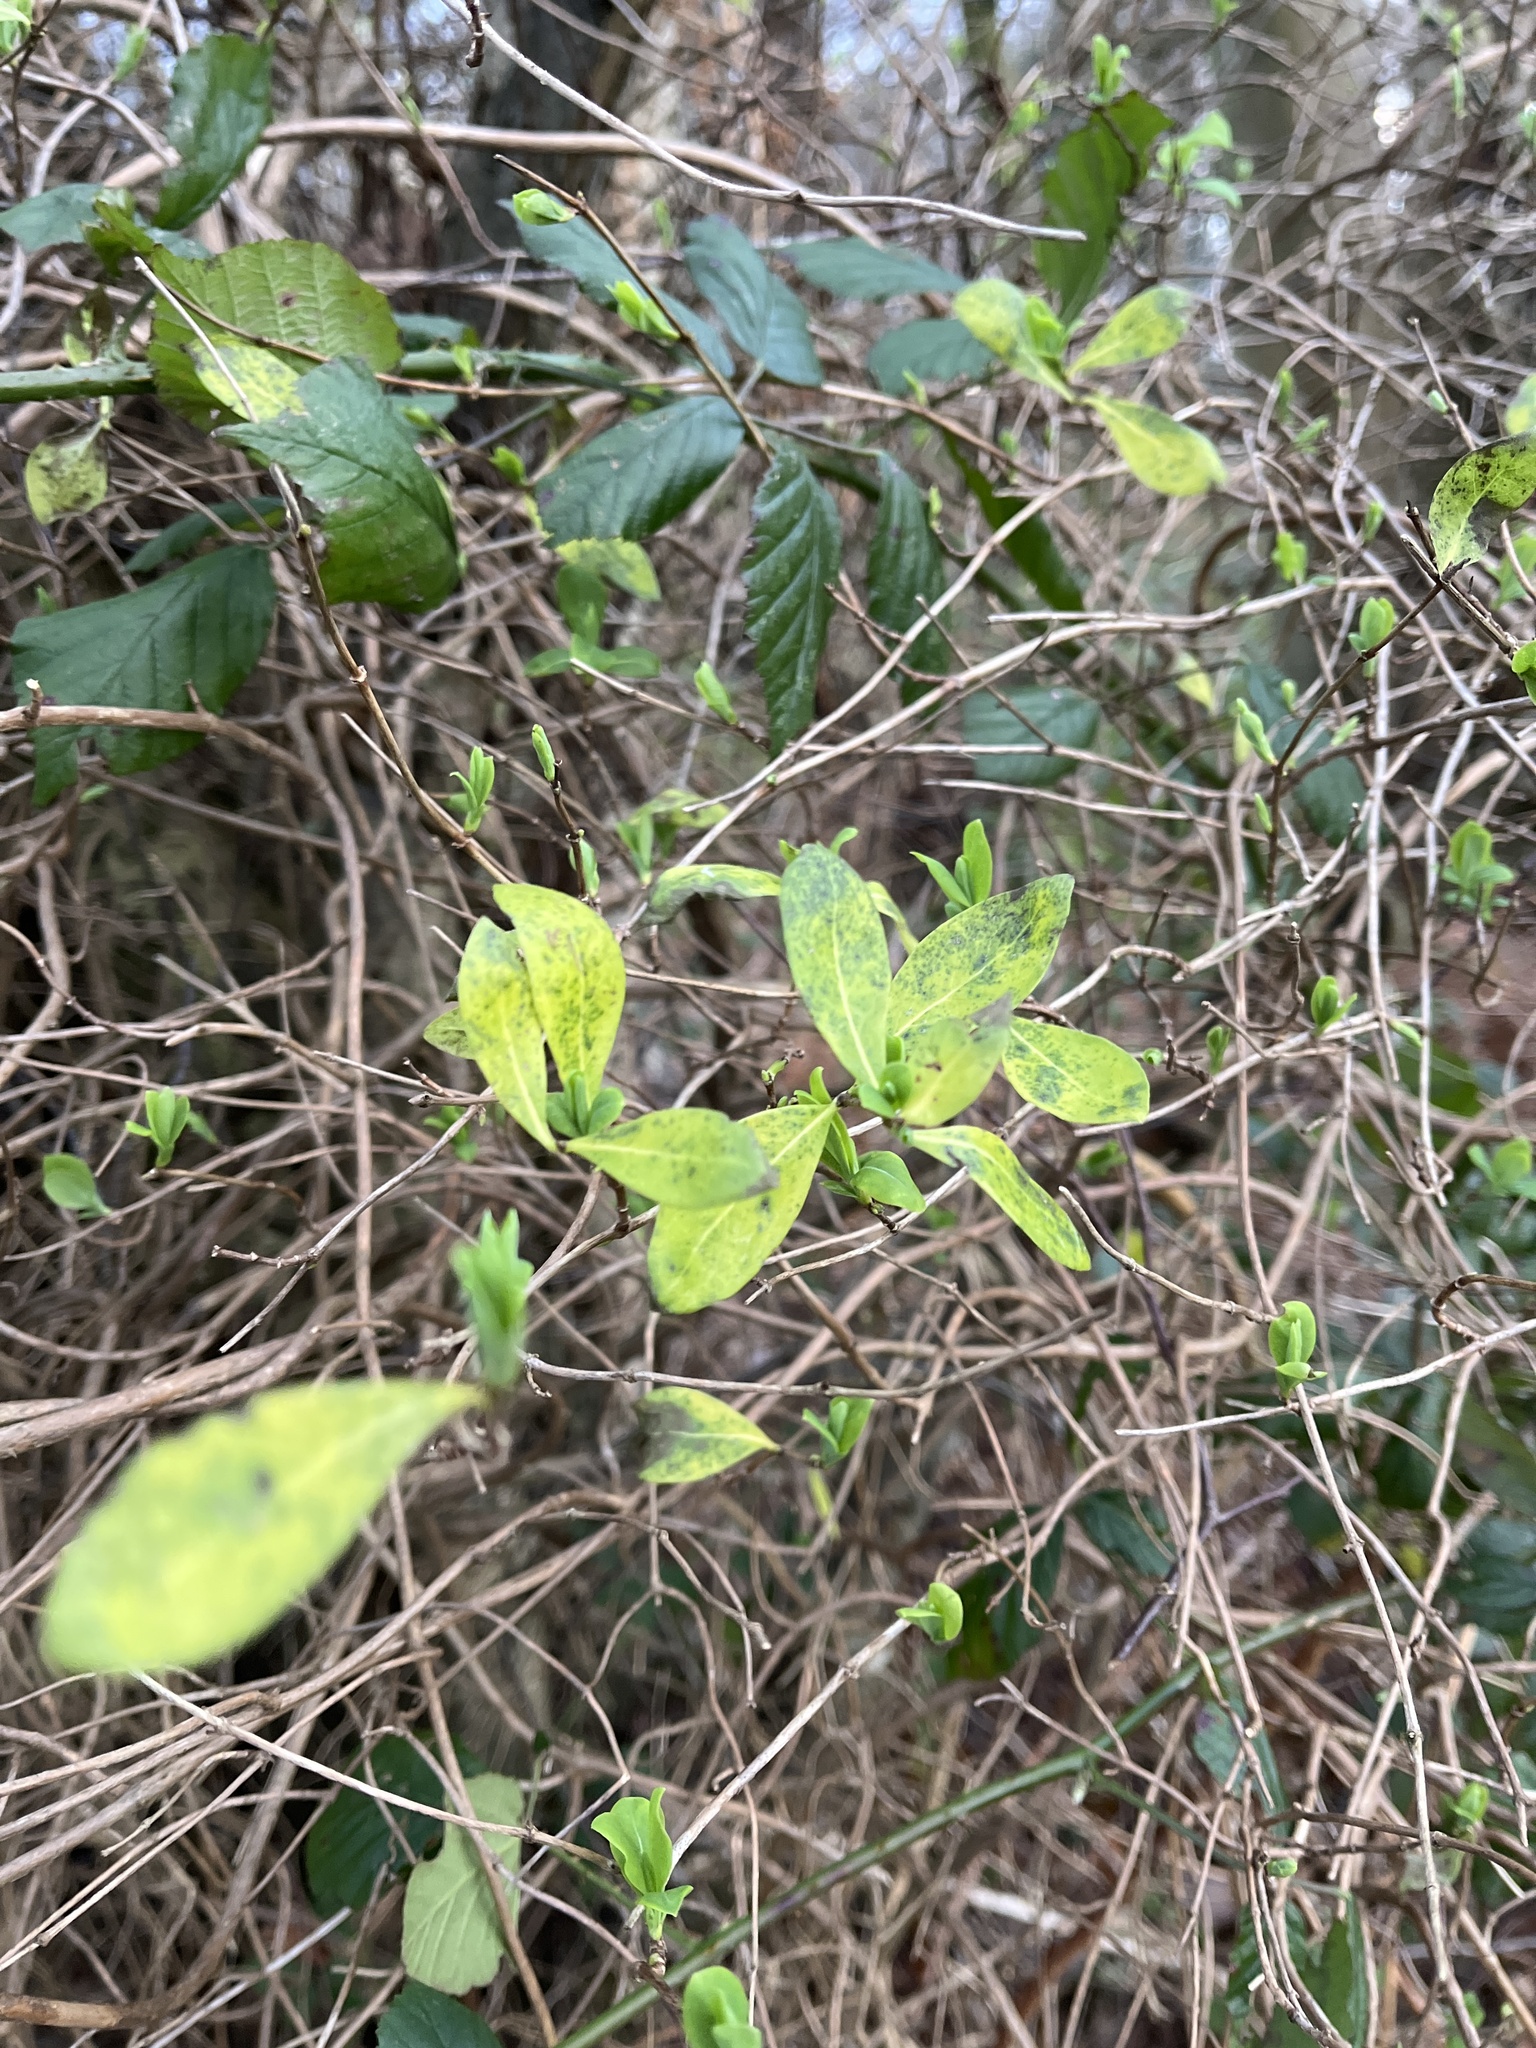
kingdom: Plantae
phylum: Tracheophyta
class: Magnoliopsida
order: Dipsacales
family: Caprifoliaceae
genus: Lonicera
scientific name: Lonicera periclymenum
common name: European honeysuckle
